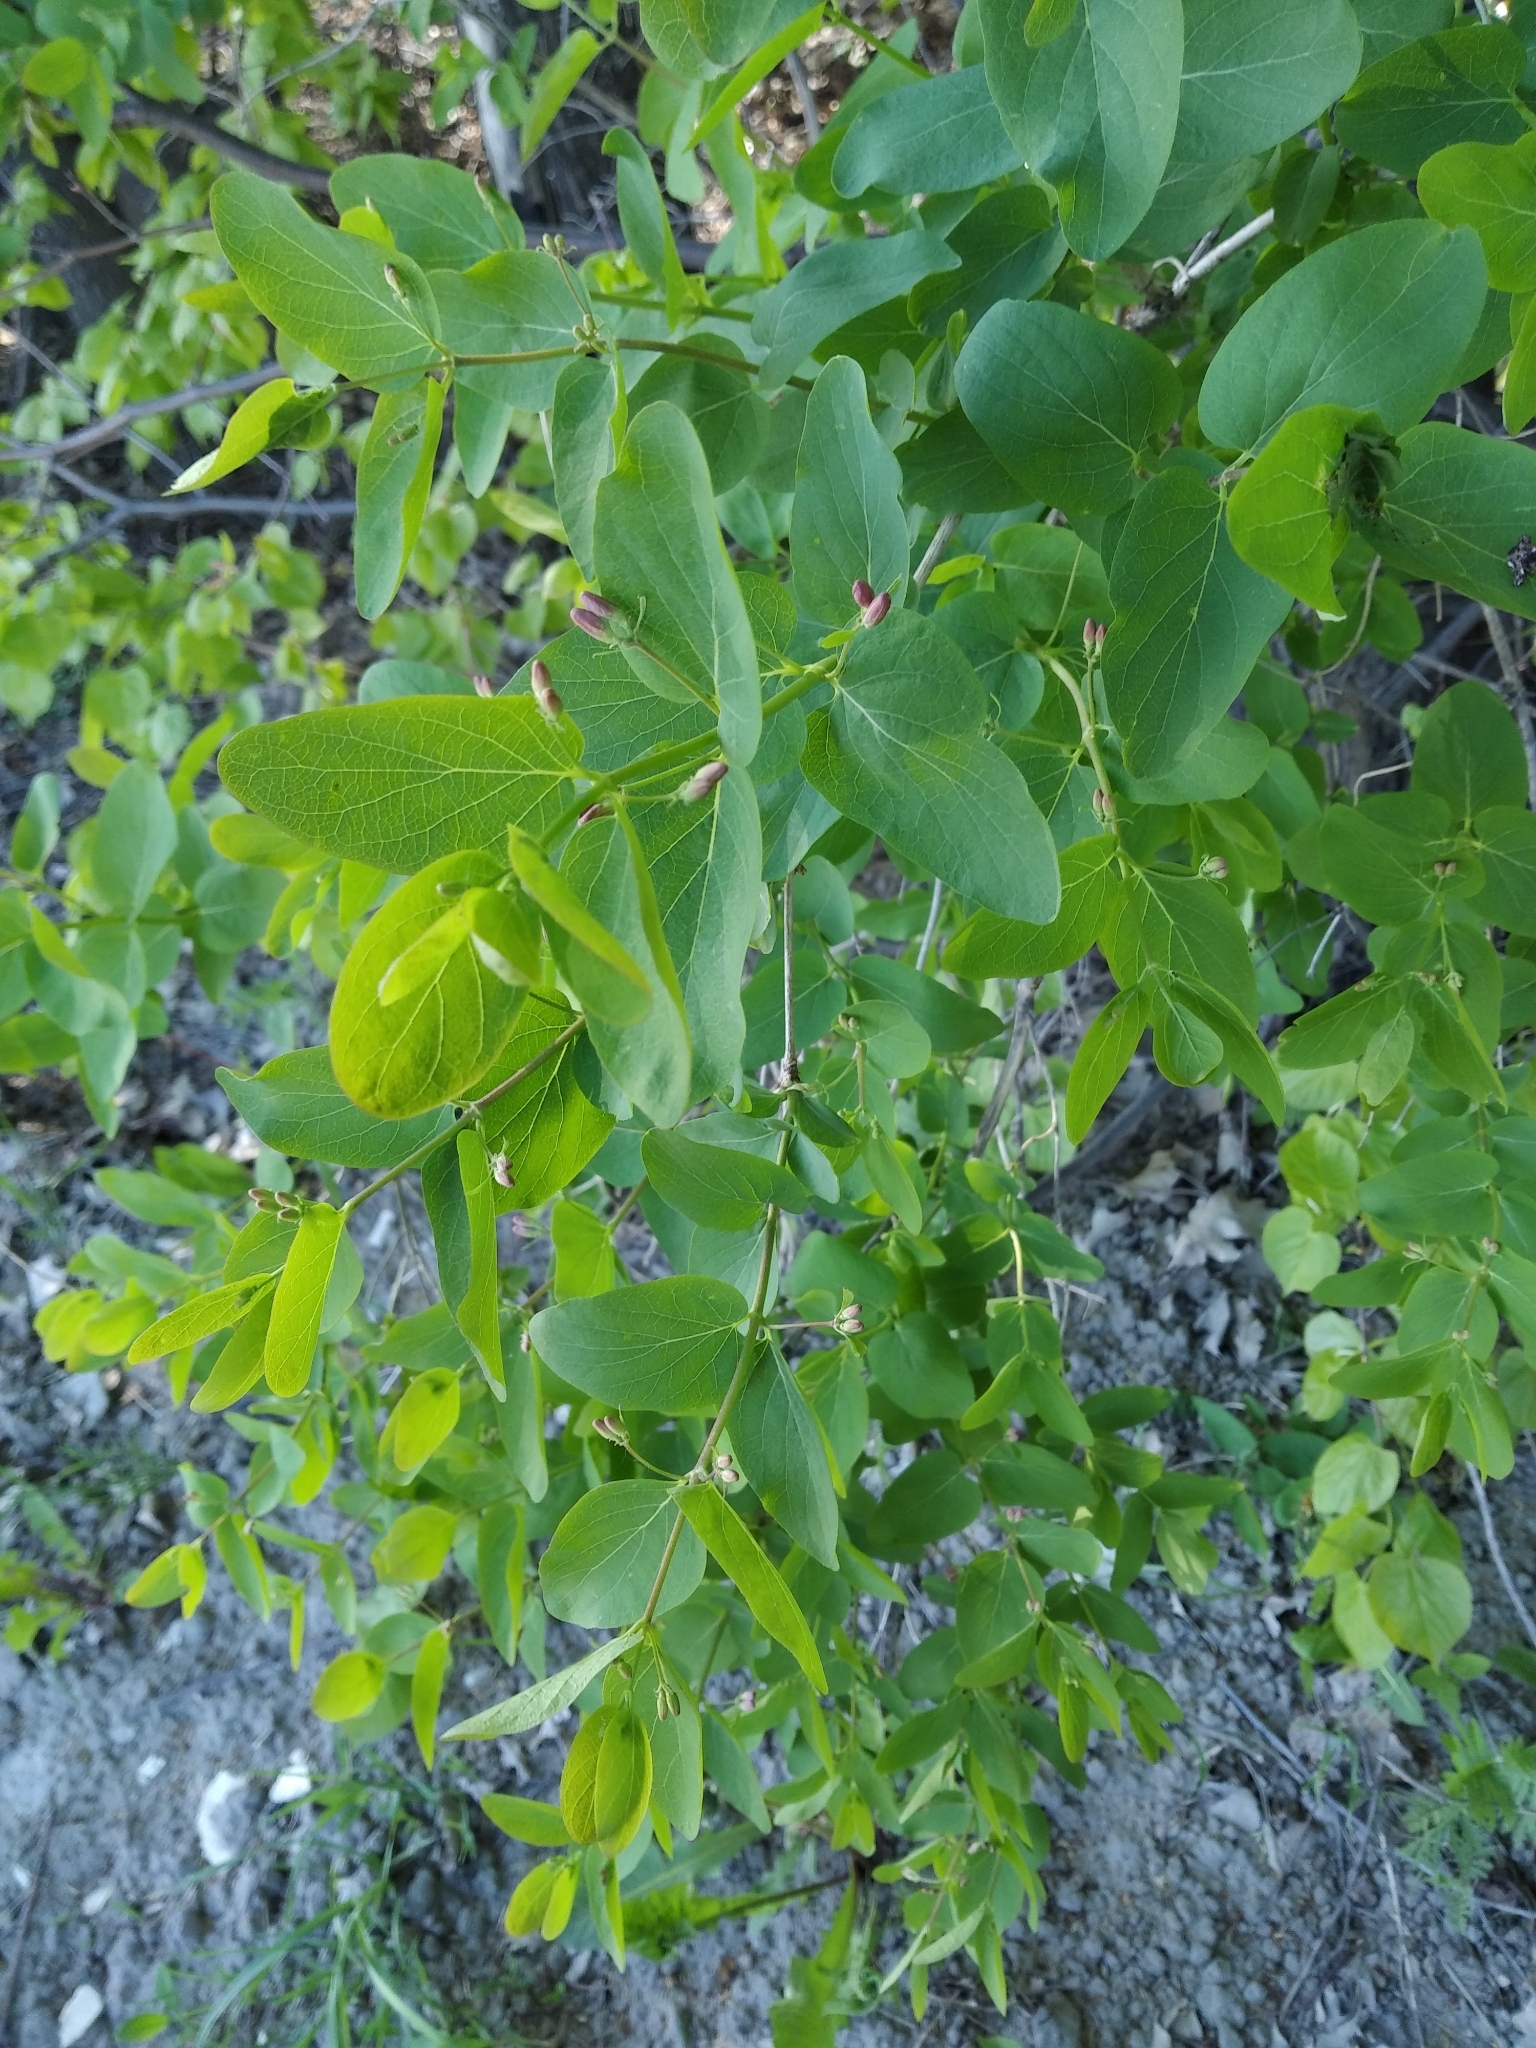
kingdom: Plantae
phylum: Tracheophyta
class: Magnoliopsida
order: Dipsacales
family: Caprifoliaceae
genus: Lonicera
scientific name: Lonicera tatarica
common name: Tatarian honeysuckle
